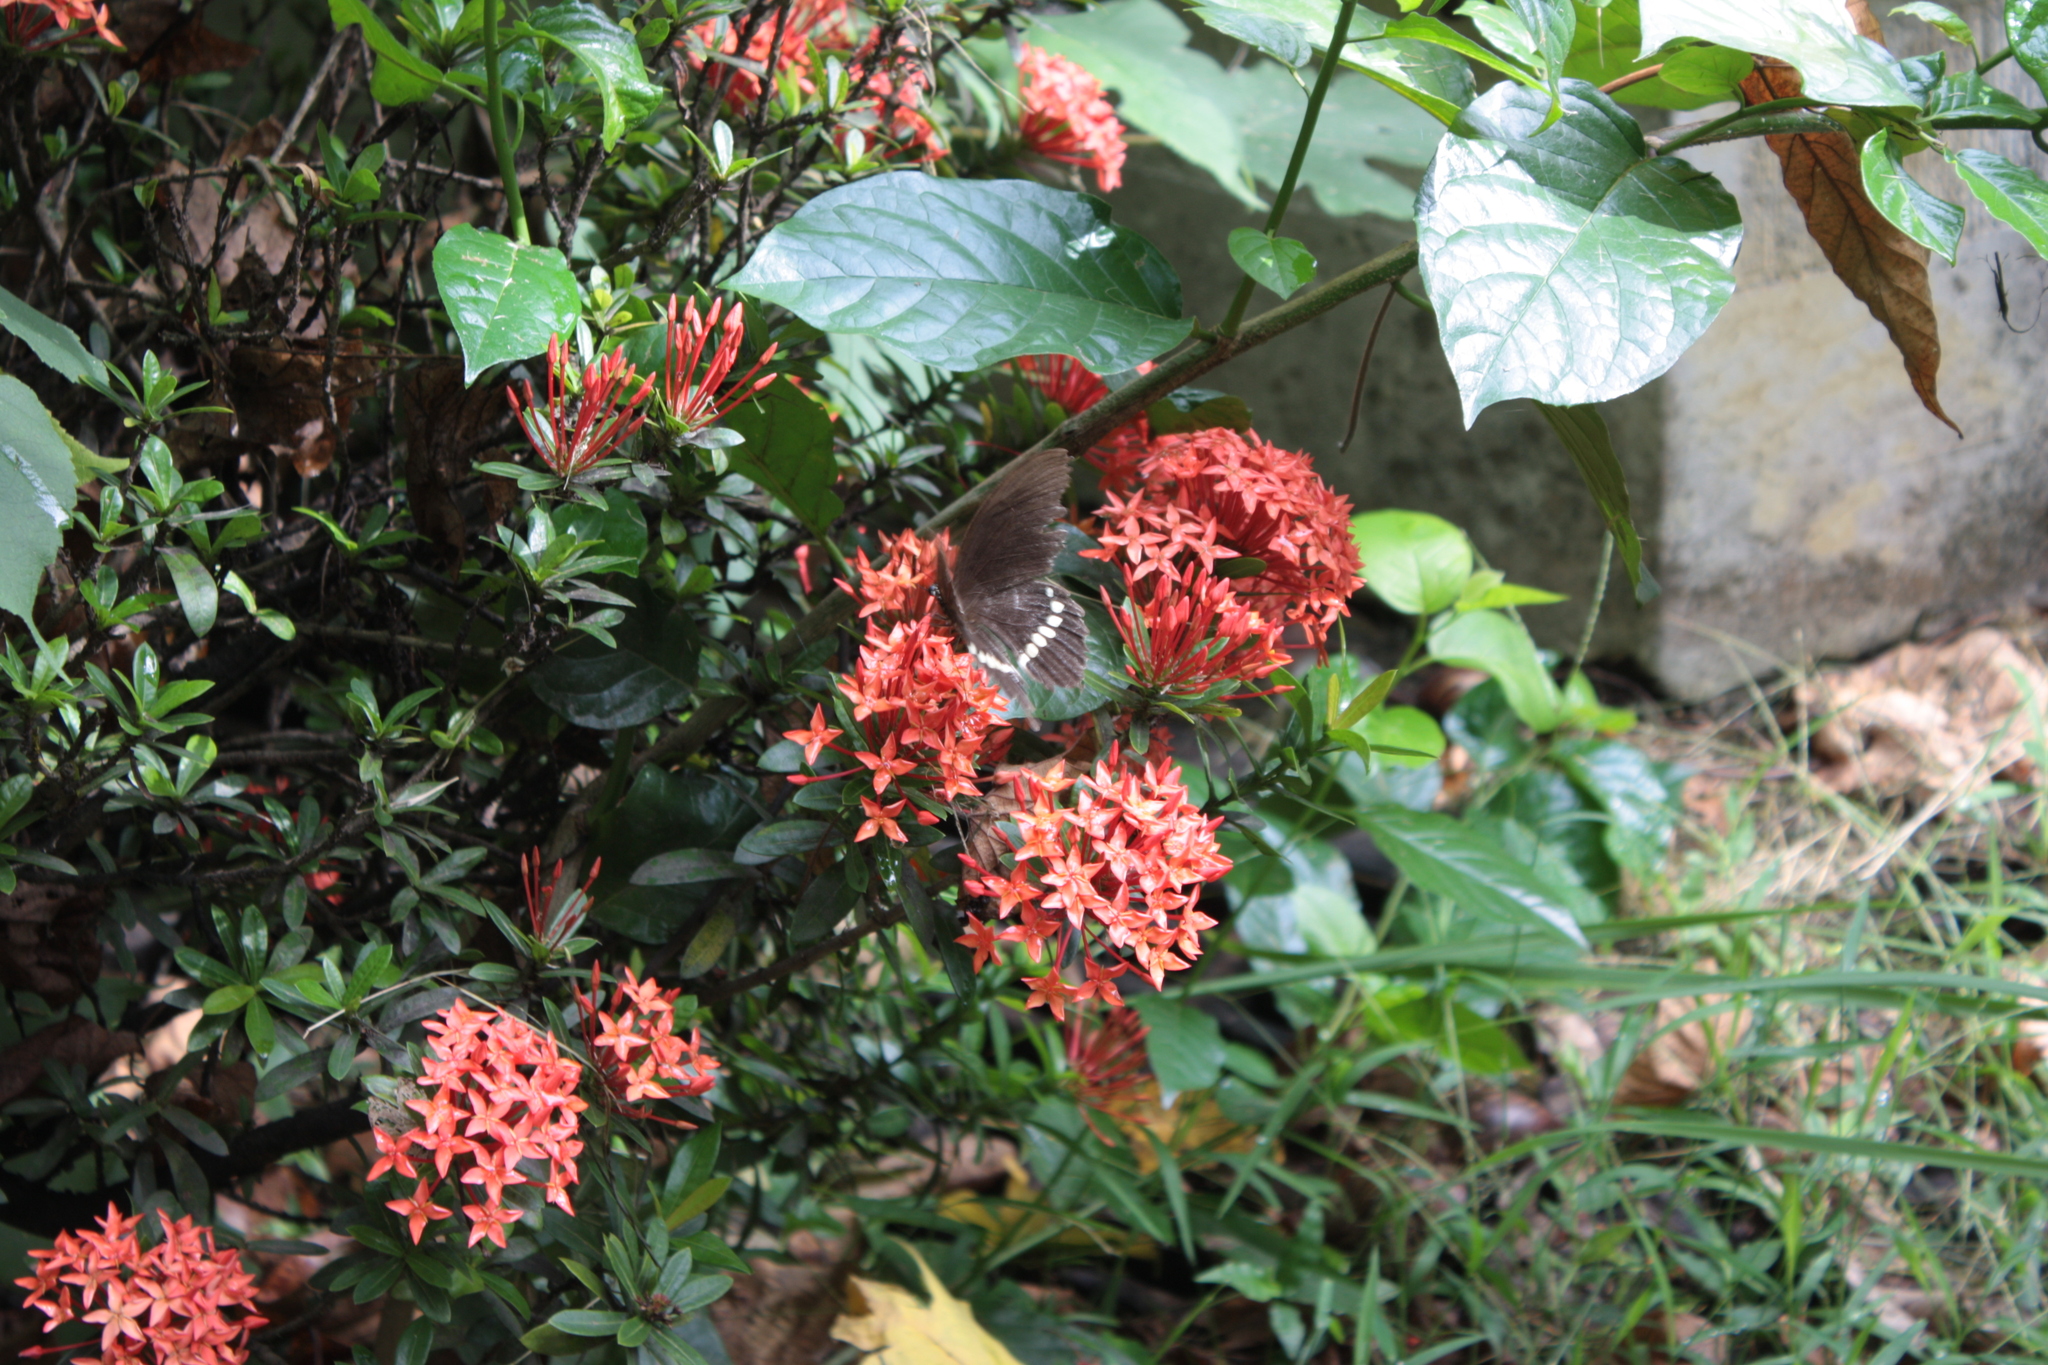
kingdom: Animalia
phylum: Arthropoda
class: Insecta
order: Lepidoptera
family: Papilionidae
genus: Papilio
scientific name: Papilio polytes
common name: Common mormon
